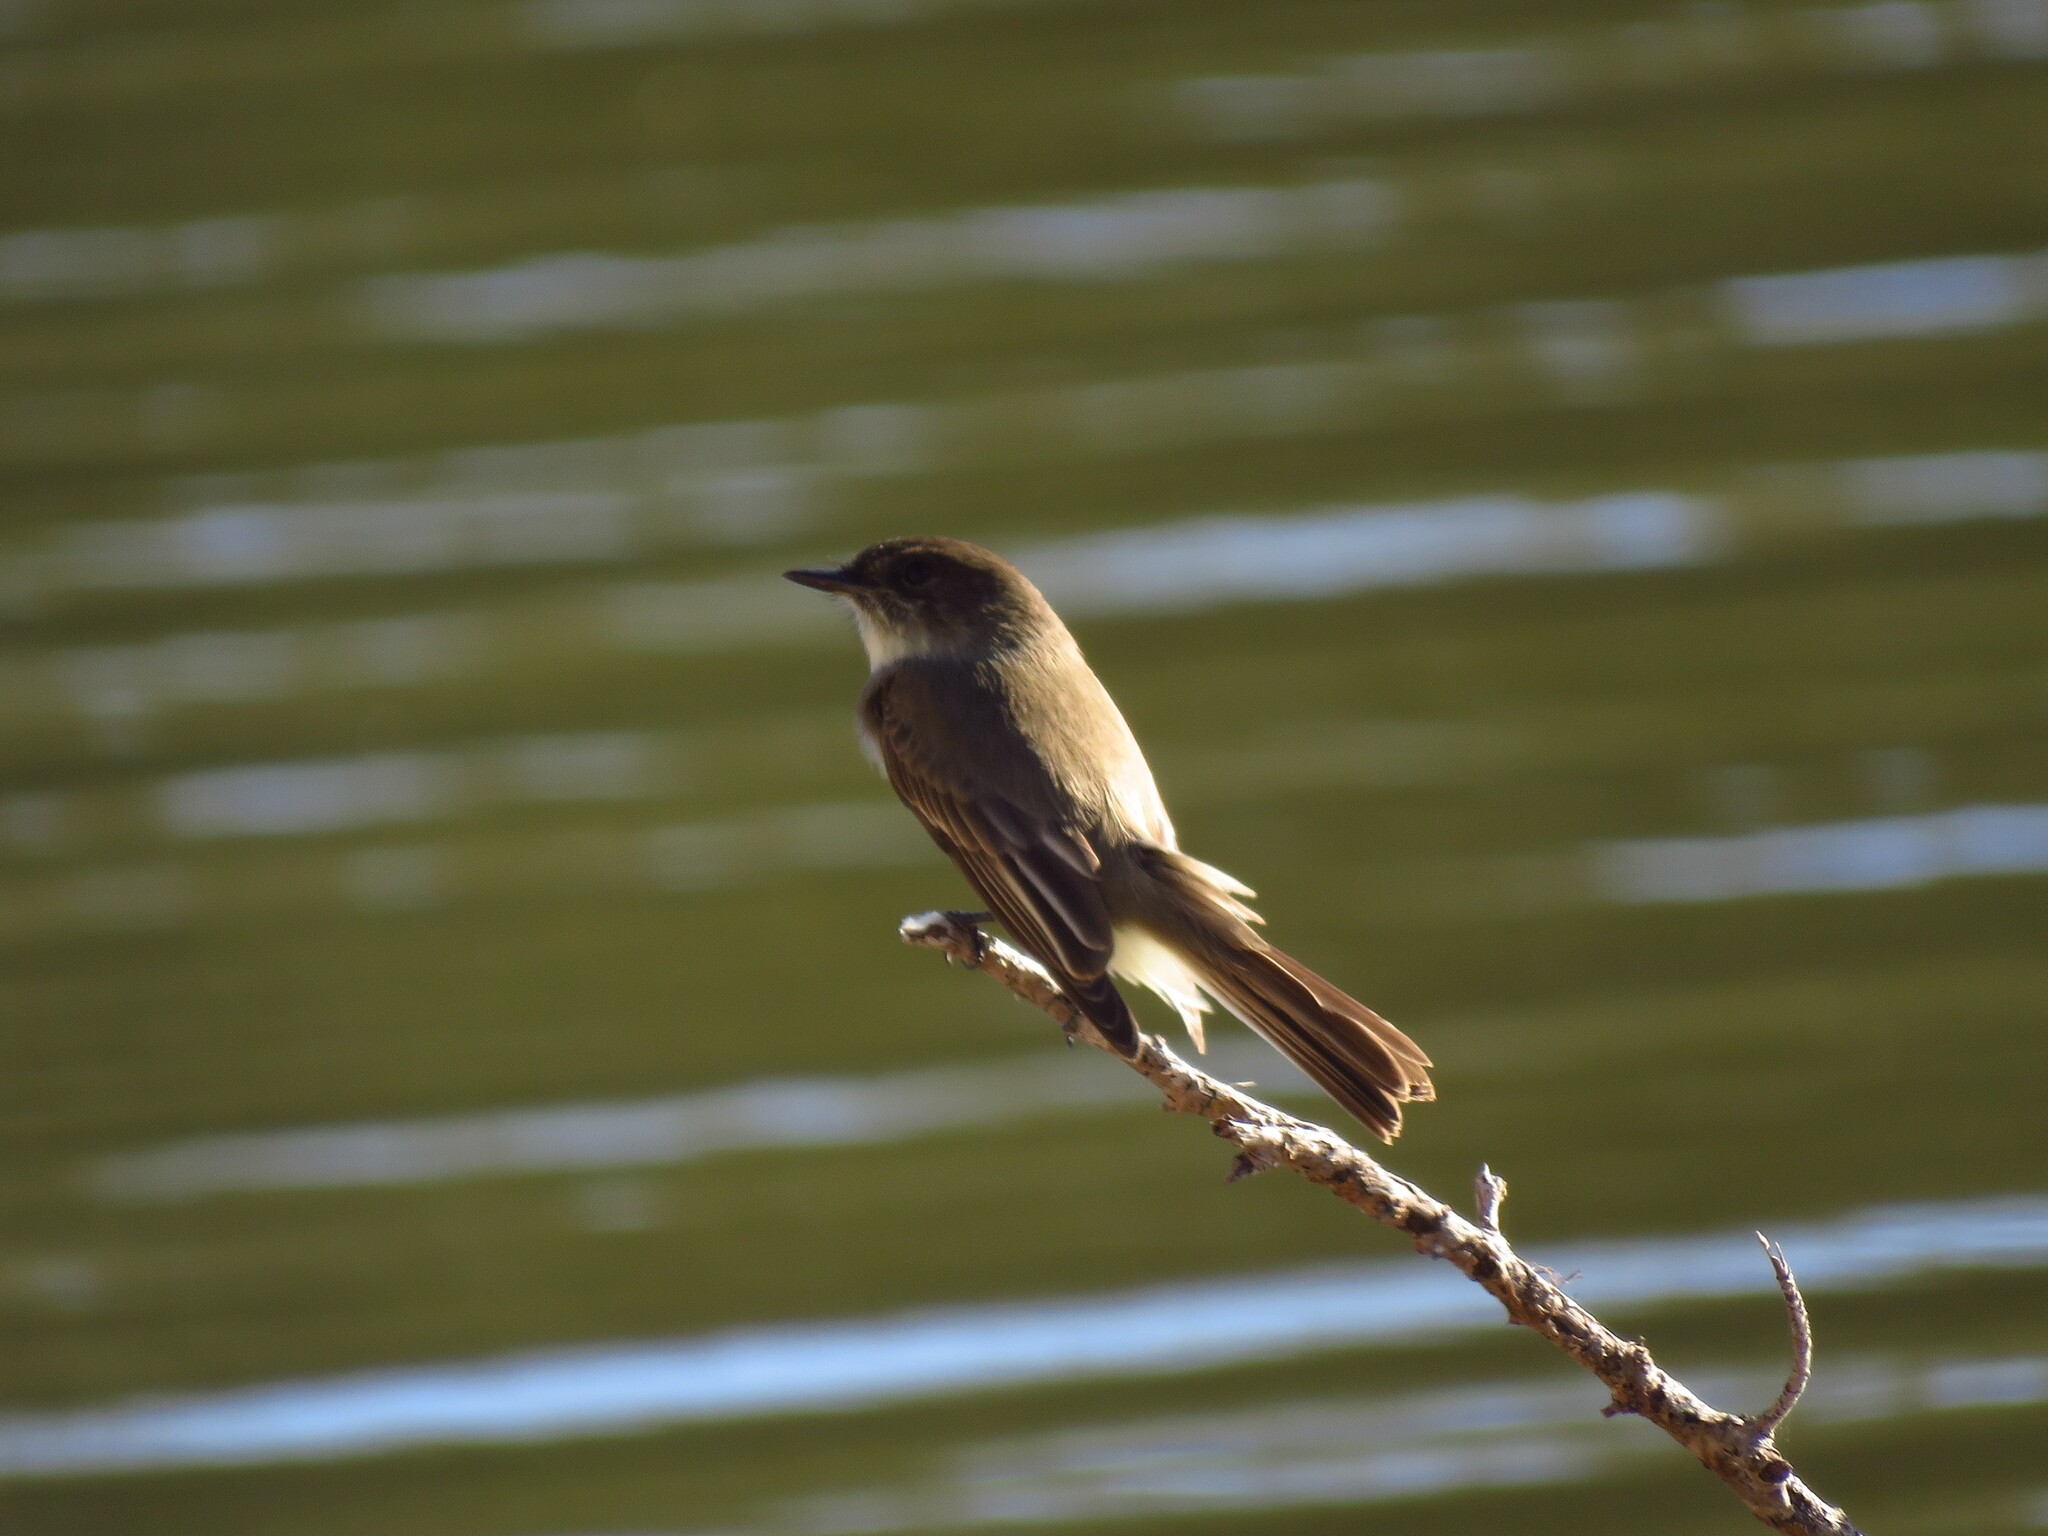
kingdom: Animalia
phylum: Chordata
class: Aves
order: Passeriformes
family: Tyrannidae
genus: Sayornis
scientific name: Sayornis phoebe
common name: Eastern phoebe
